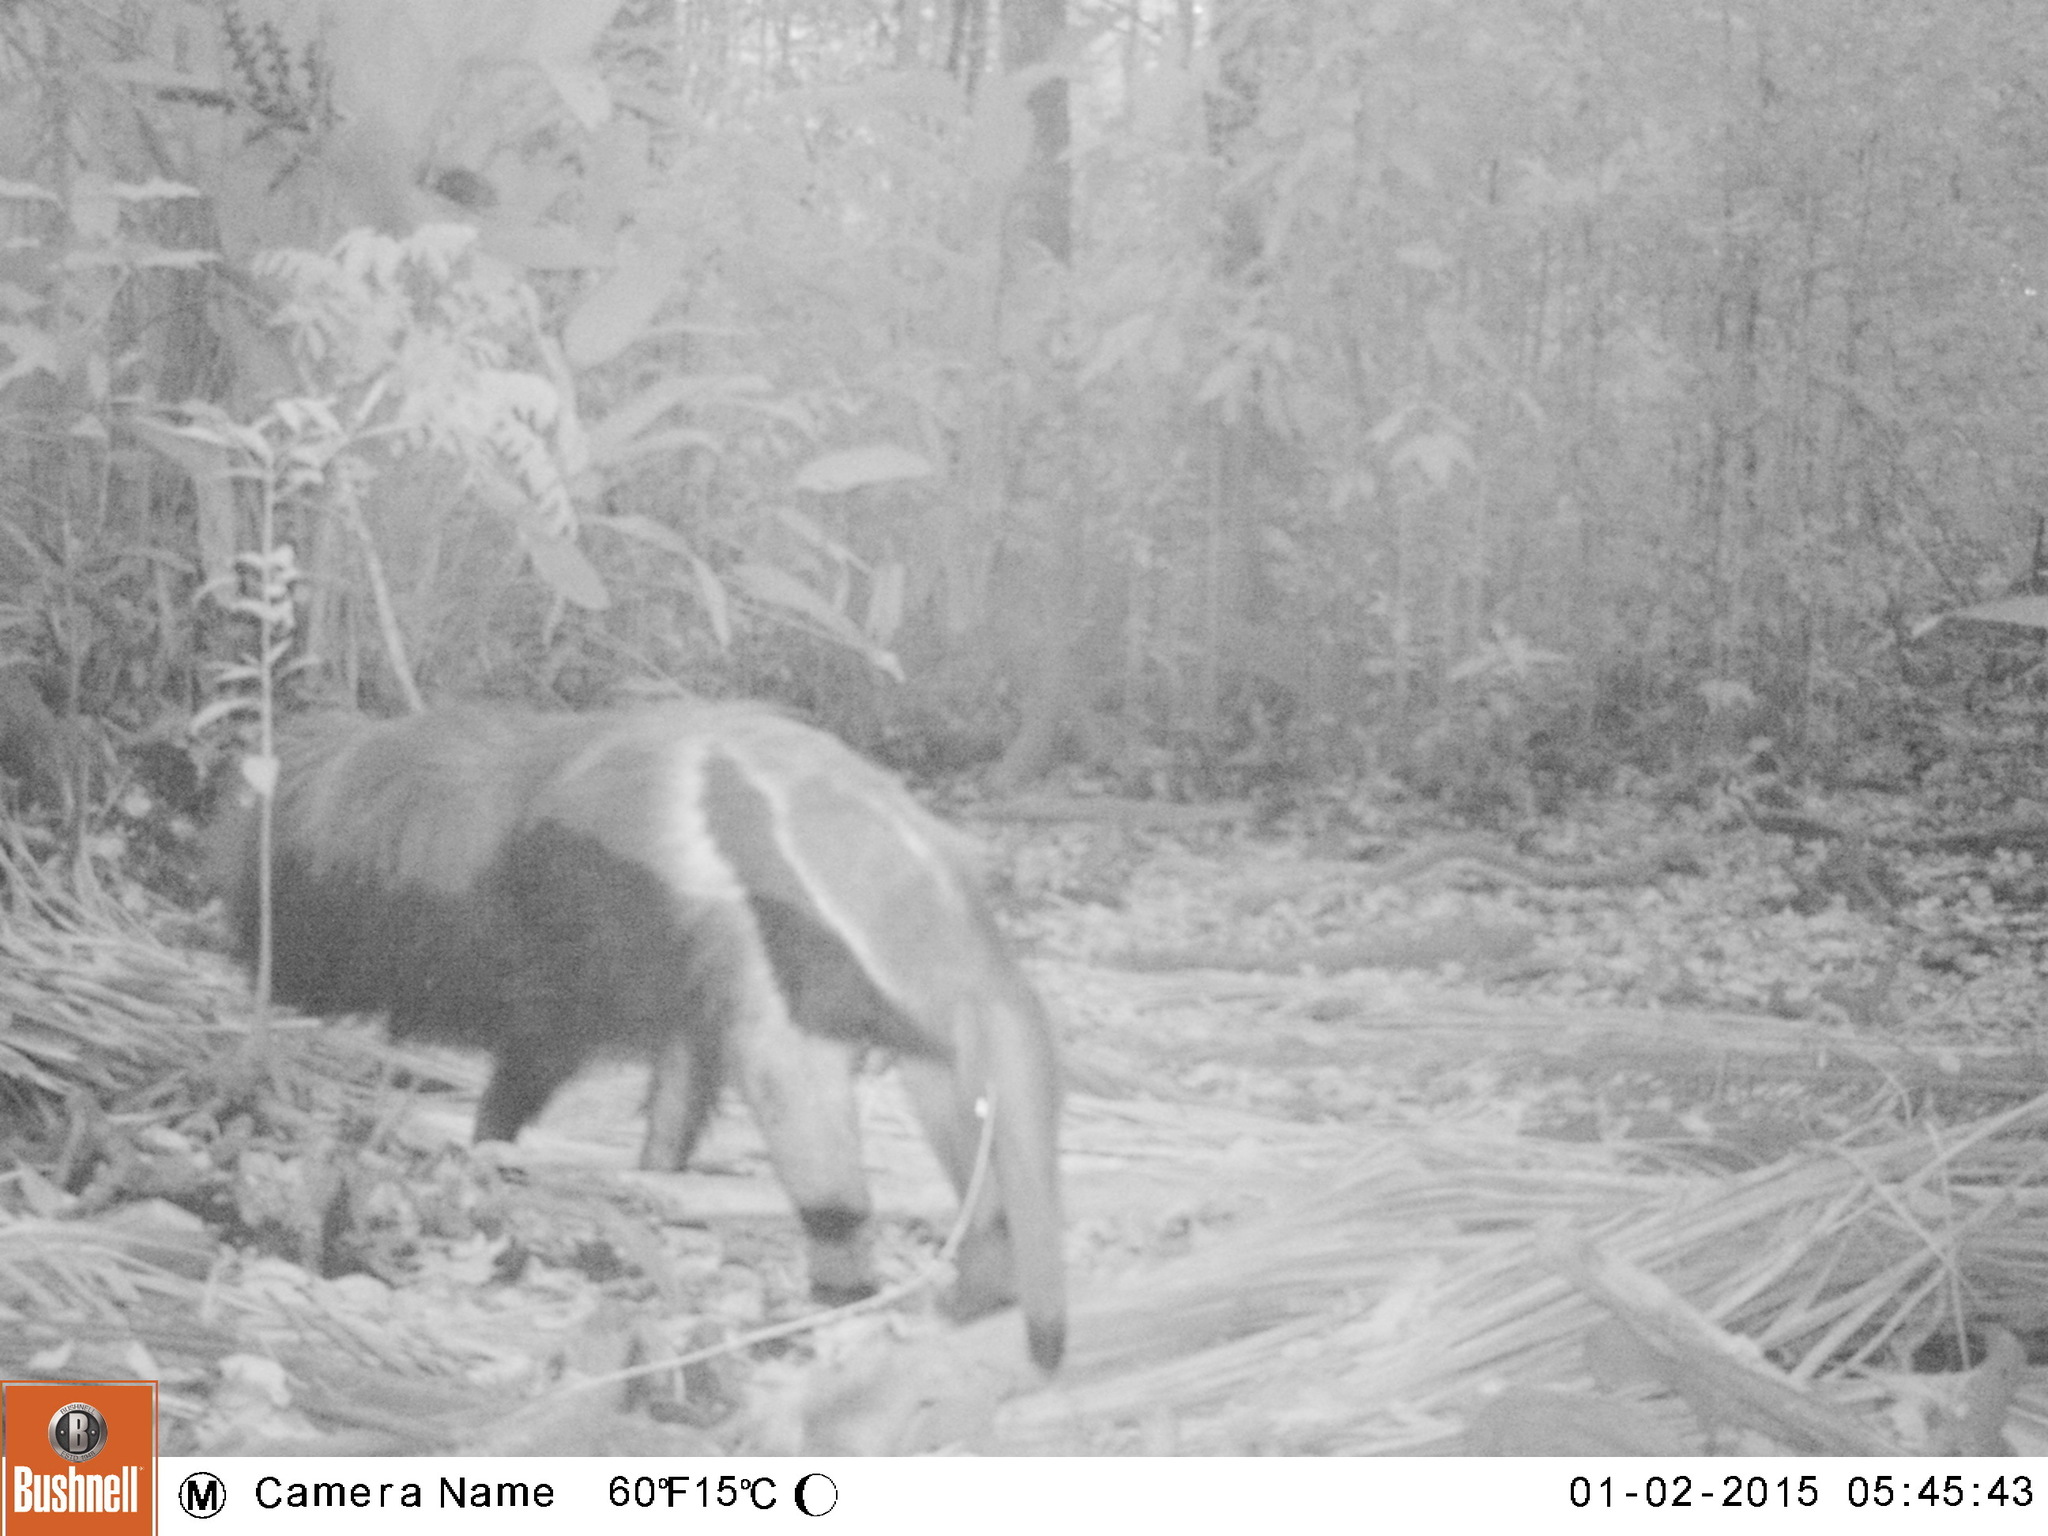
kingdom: Animalia
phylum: Chordata
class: Mammalia
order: Pilosa
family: Myrmecophagidae
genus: Myrmecophaga
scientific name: Myrmecophaga tridactyla
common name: Giant anteater
